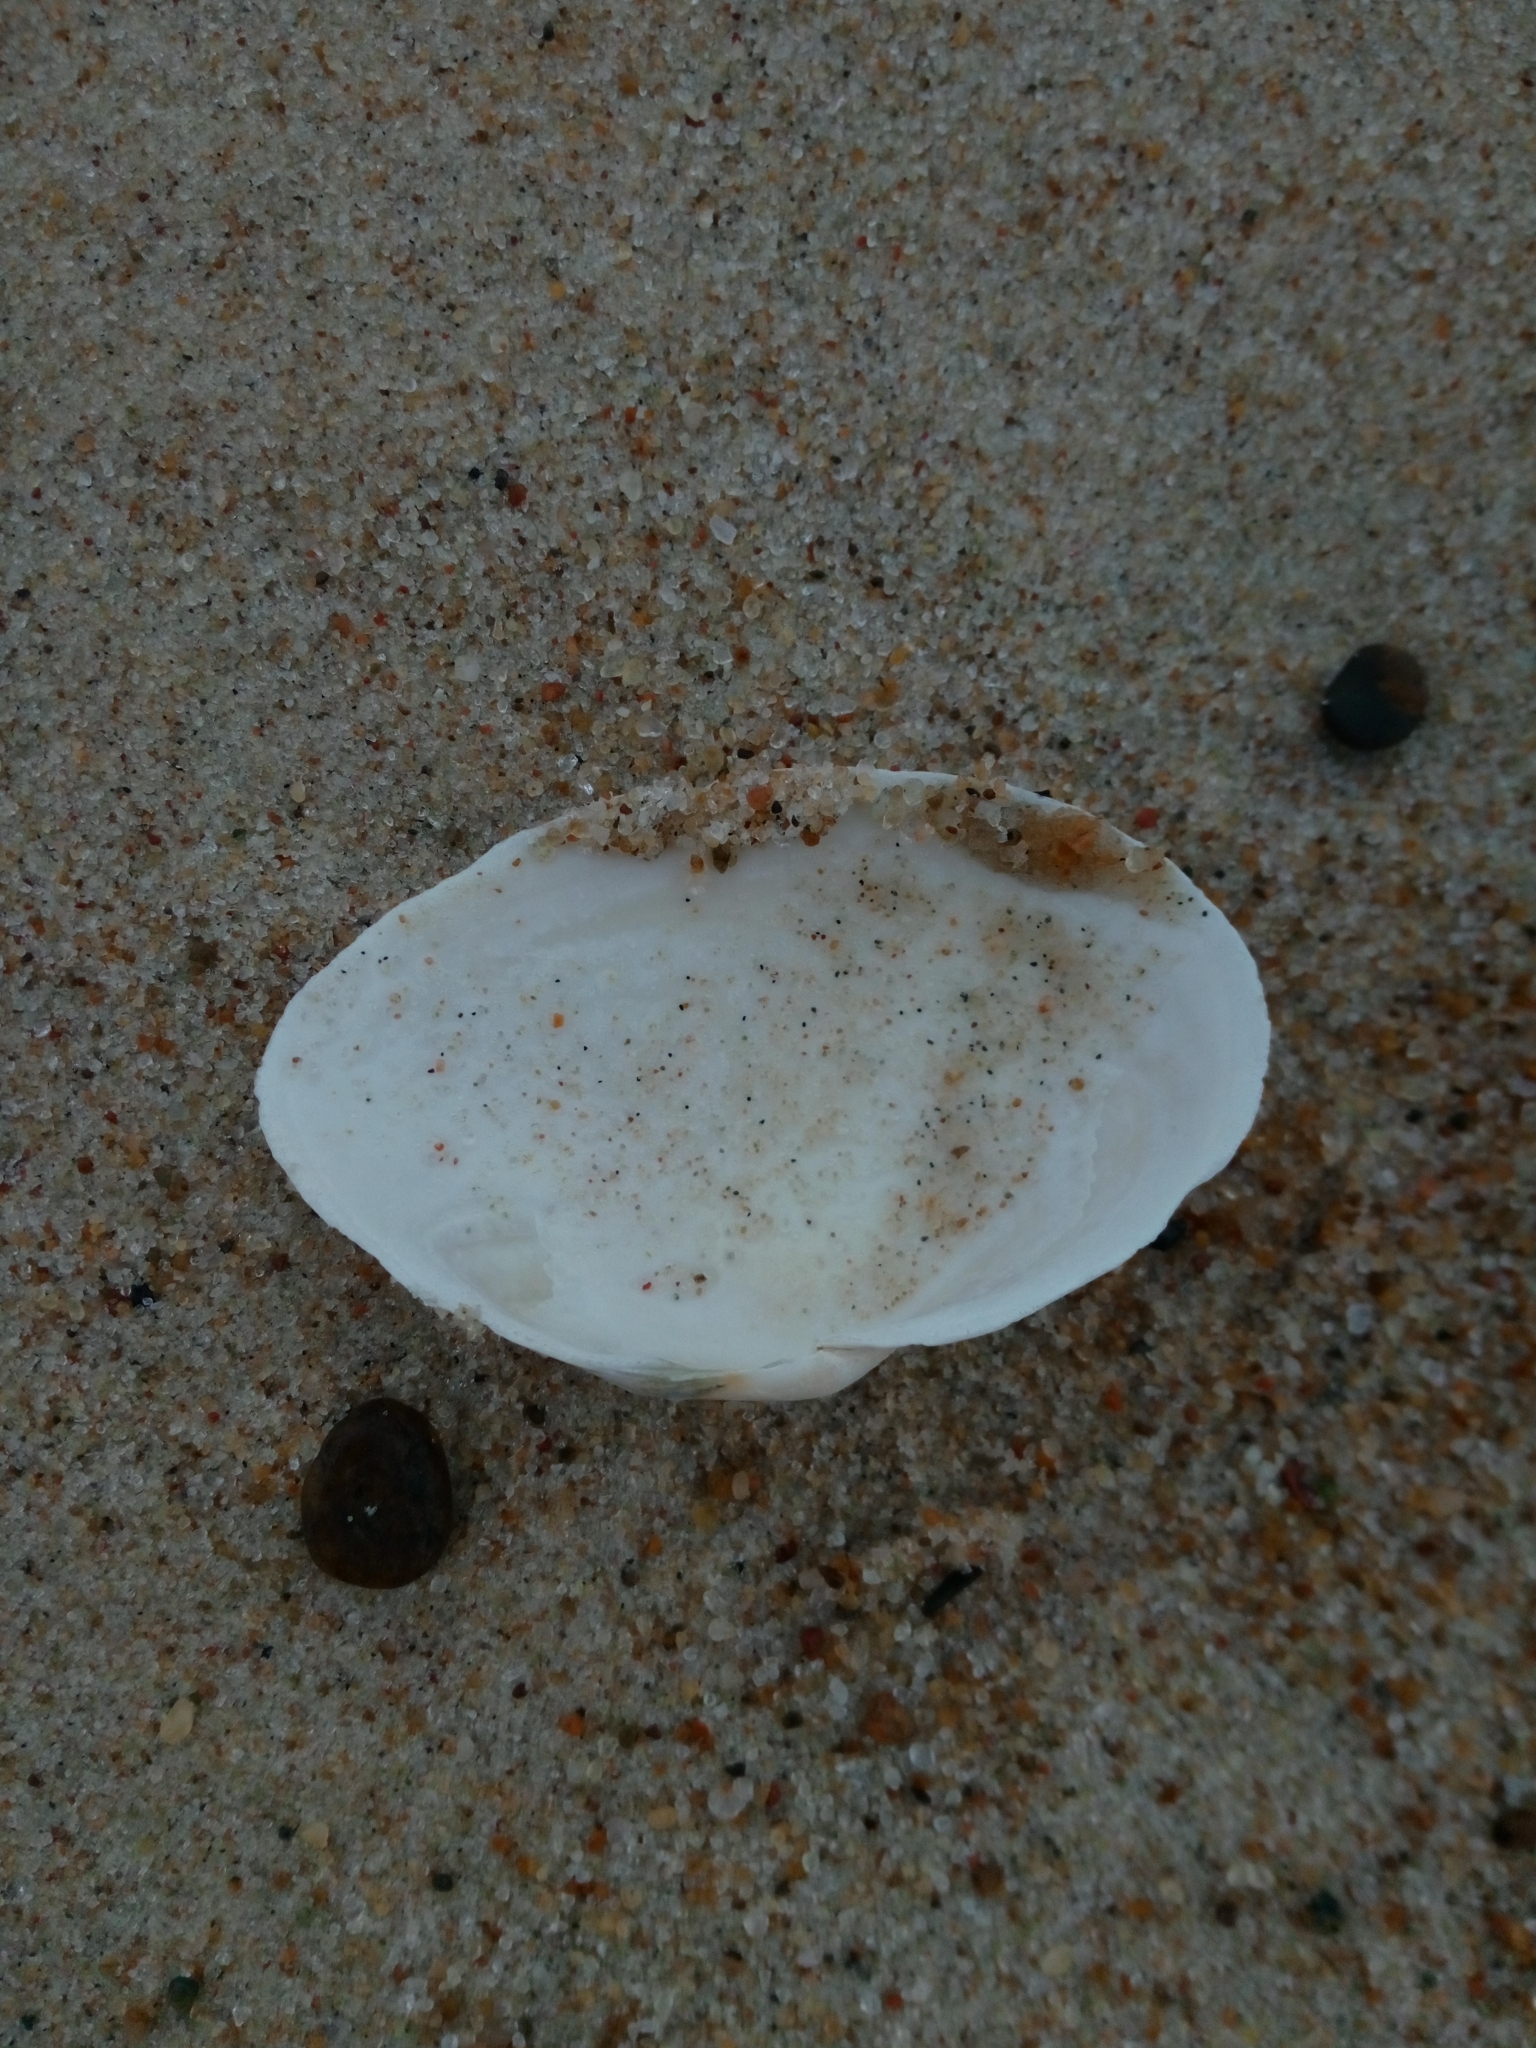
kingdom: Animalia
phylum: Mollusca
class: Bivalvia
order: Myida
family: Myidae
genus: Mya
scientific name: Mya arenaria
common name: Soft-shelled clam
